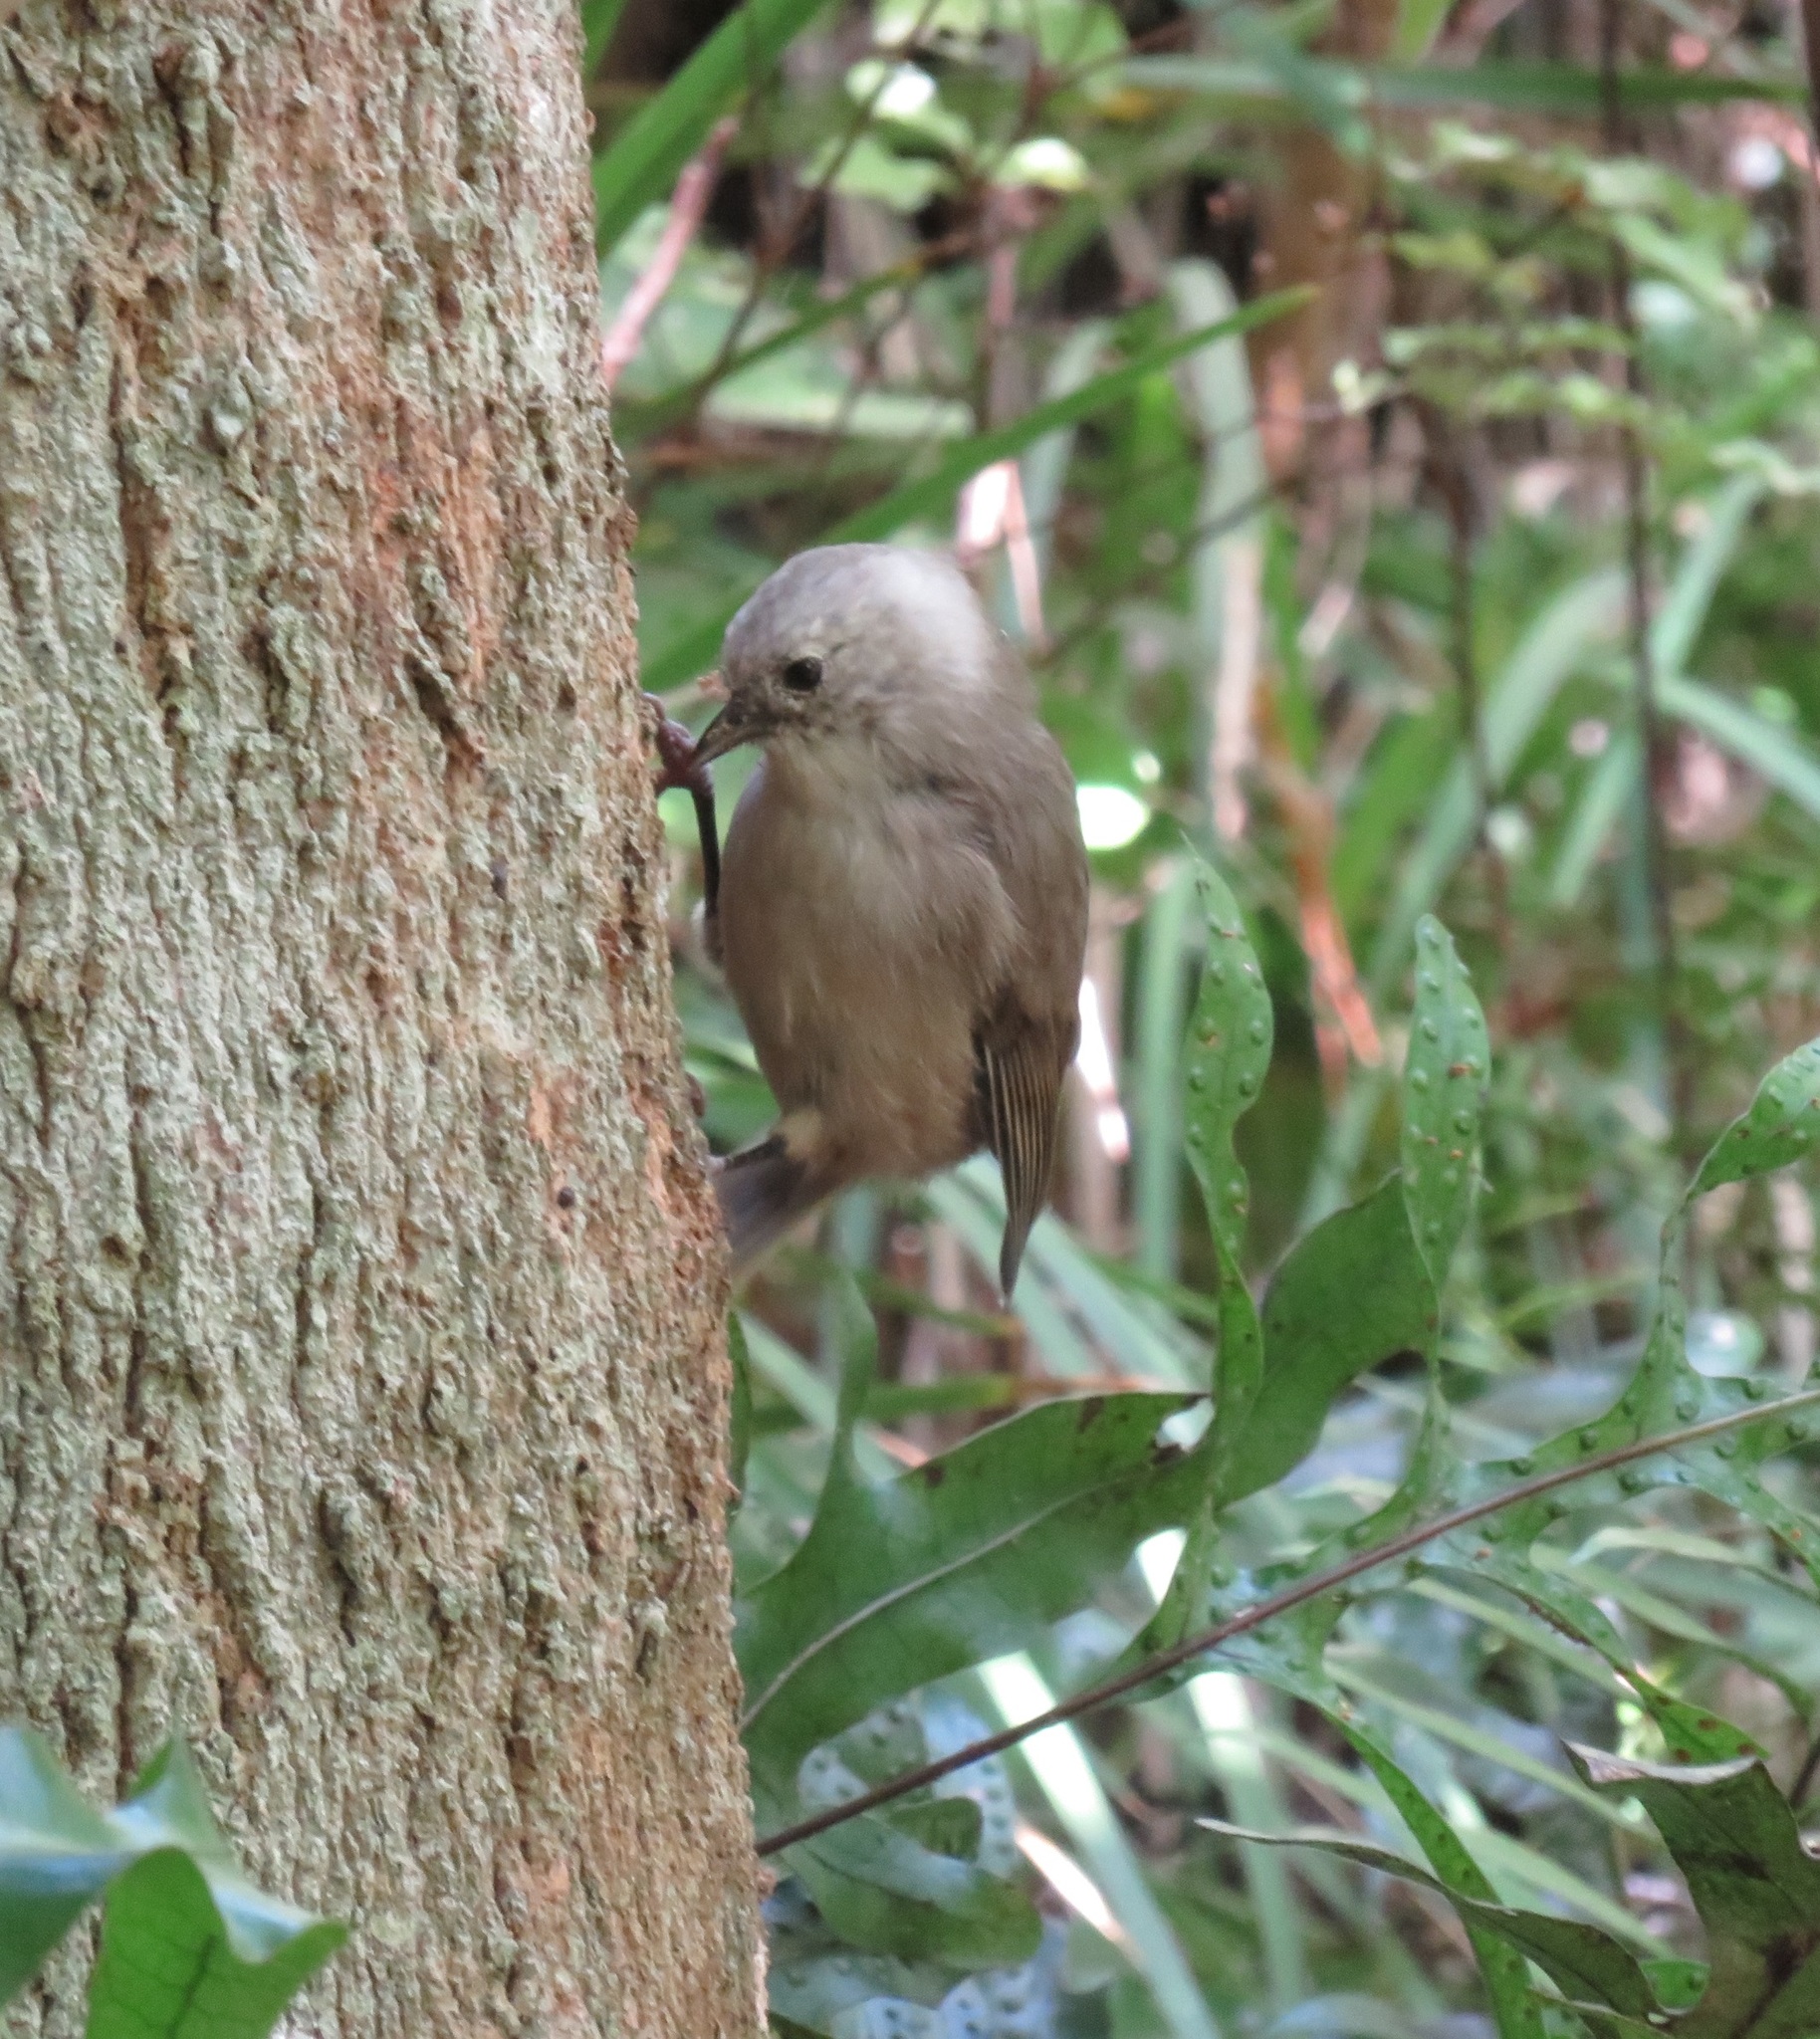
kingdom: Animalia
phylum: Chordata
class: Aves
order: Passeriformes
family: Acanthizidae
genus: Mohoua
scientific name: Mohoua albicilla
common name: Whitehead
